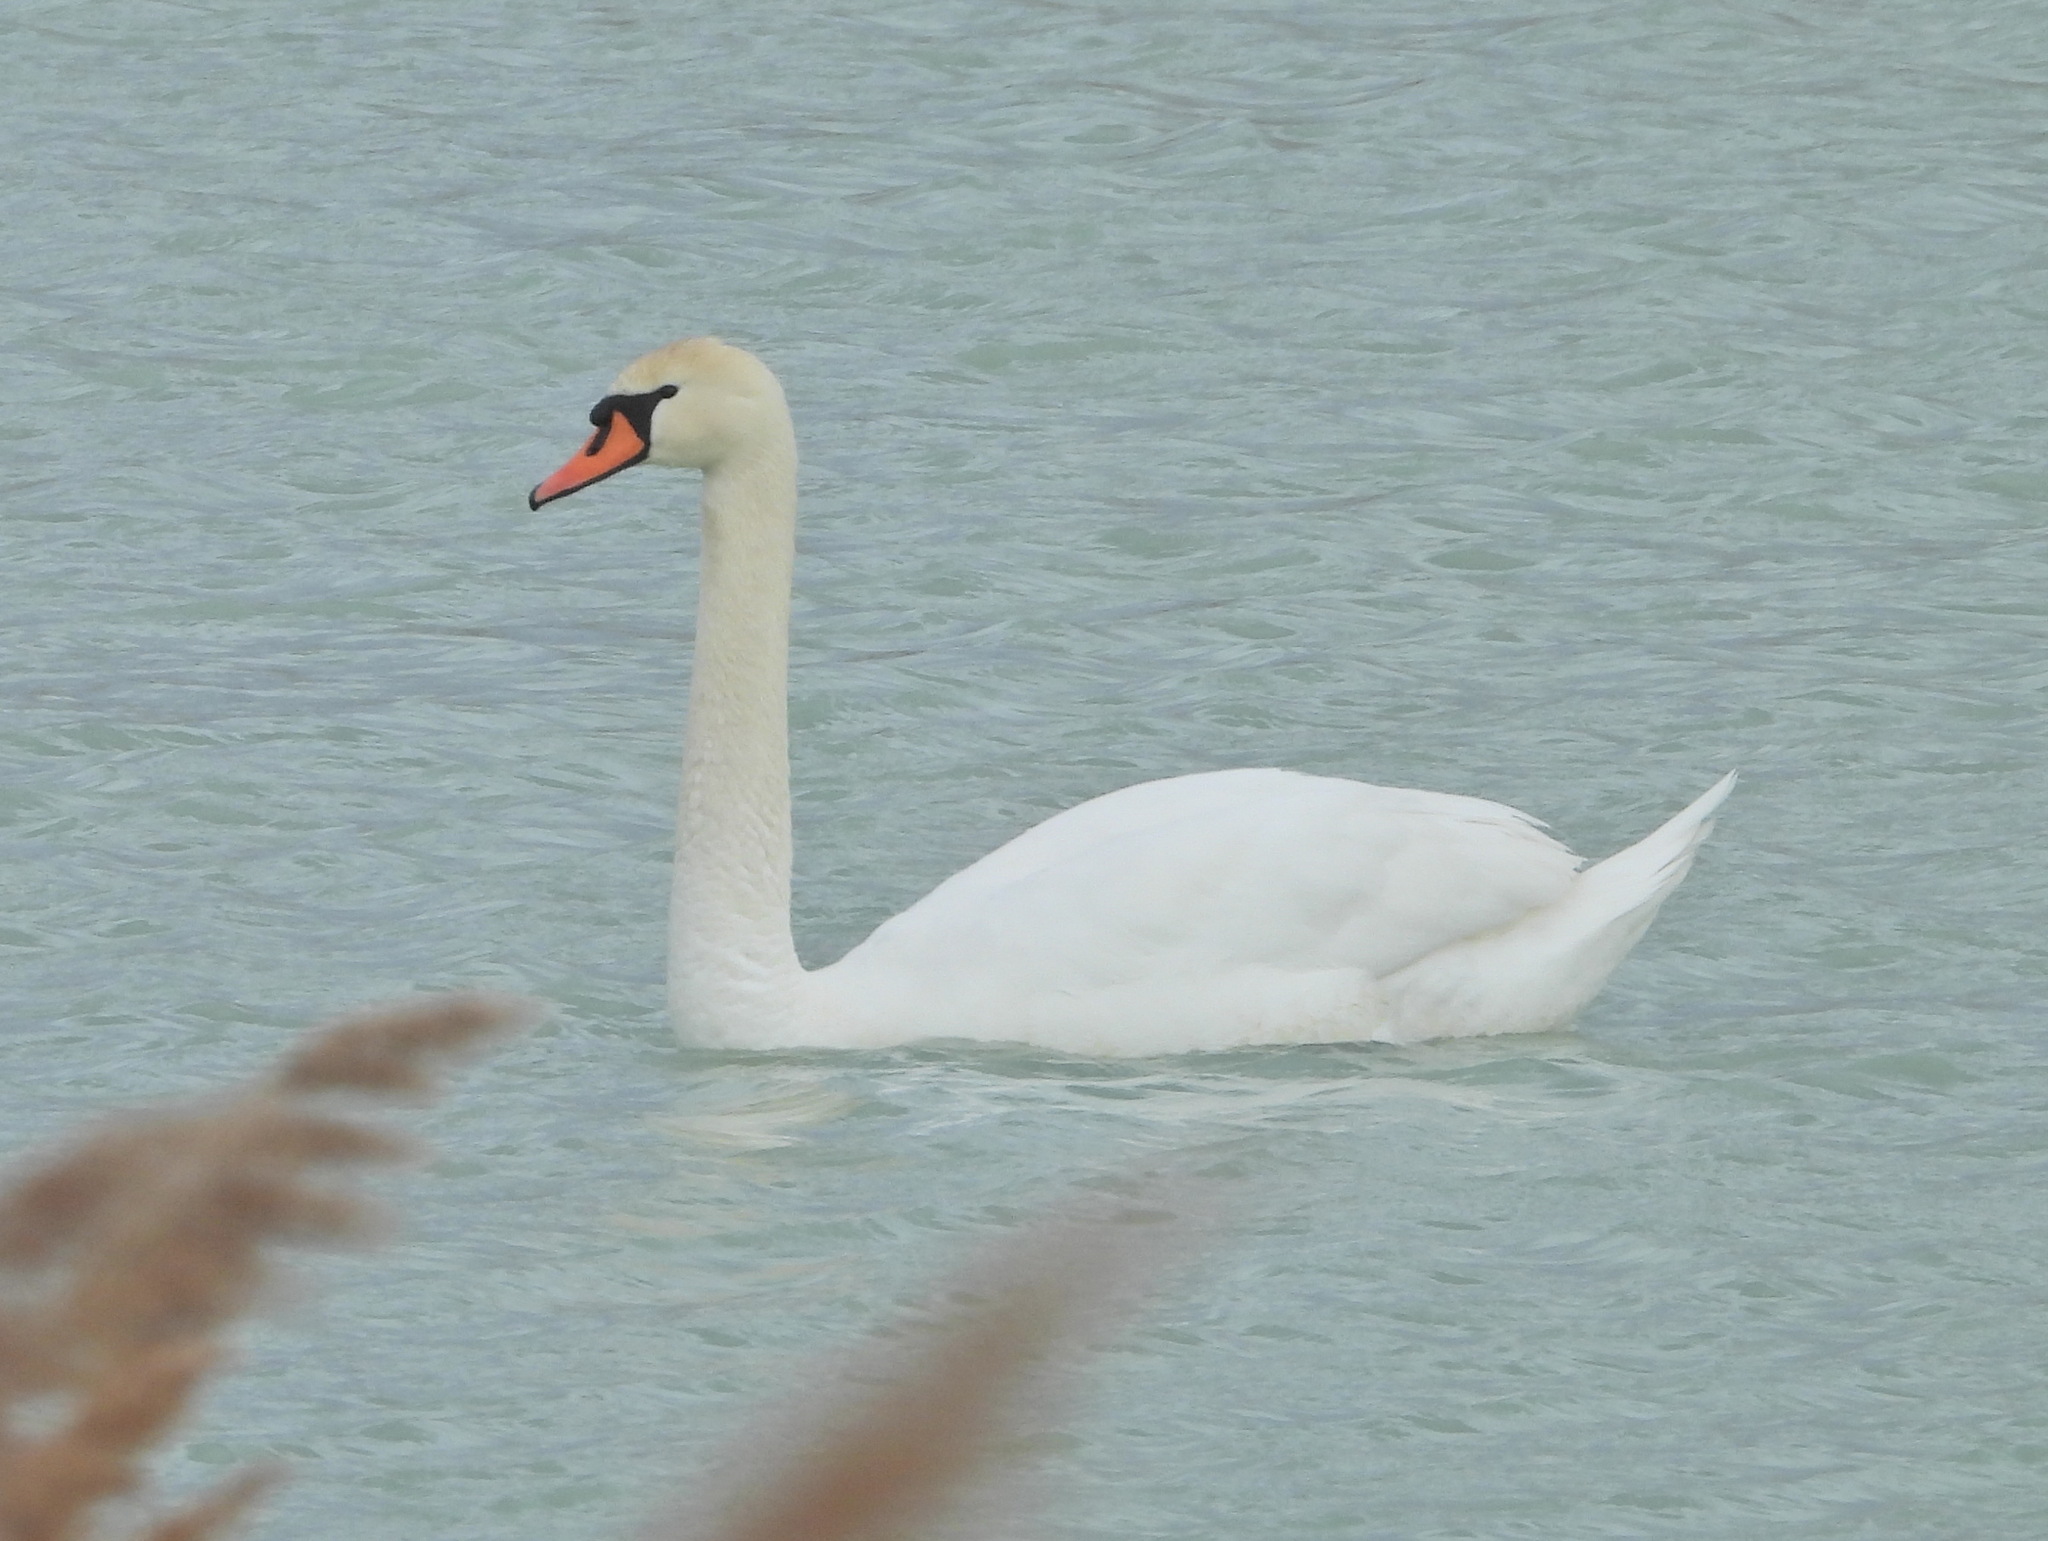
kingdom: Animalia
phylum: Chordata
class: Aves
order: Anseriformes
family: Anatidae
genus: Cygnus
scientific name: Cygnus olor
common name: Mute swan
